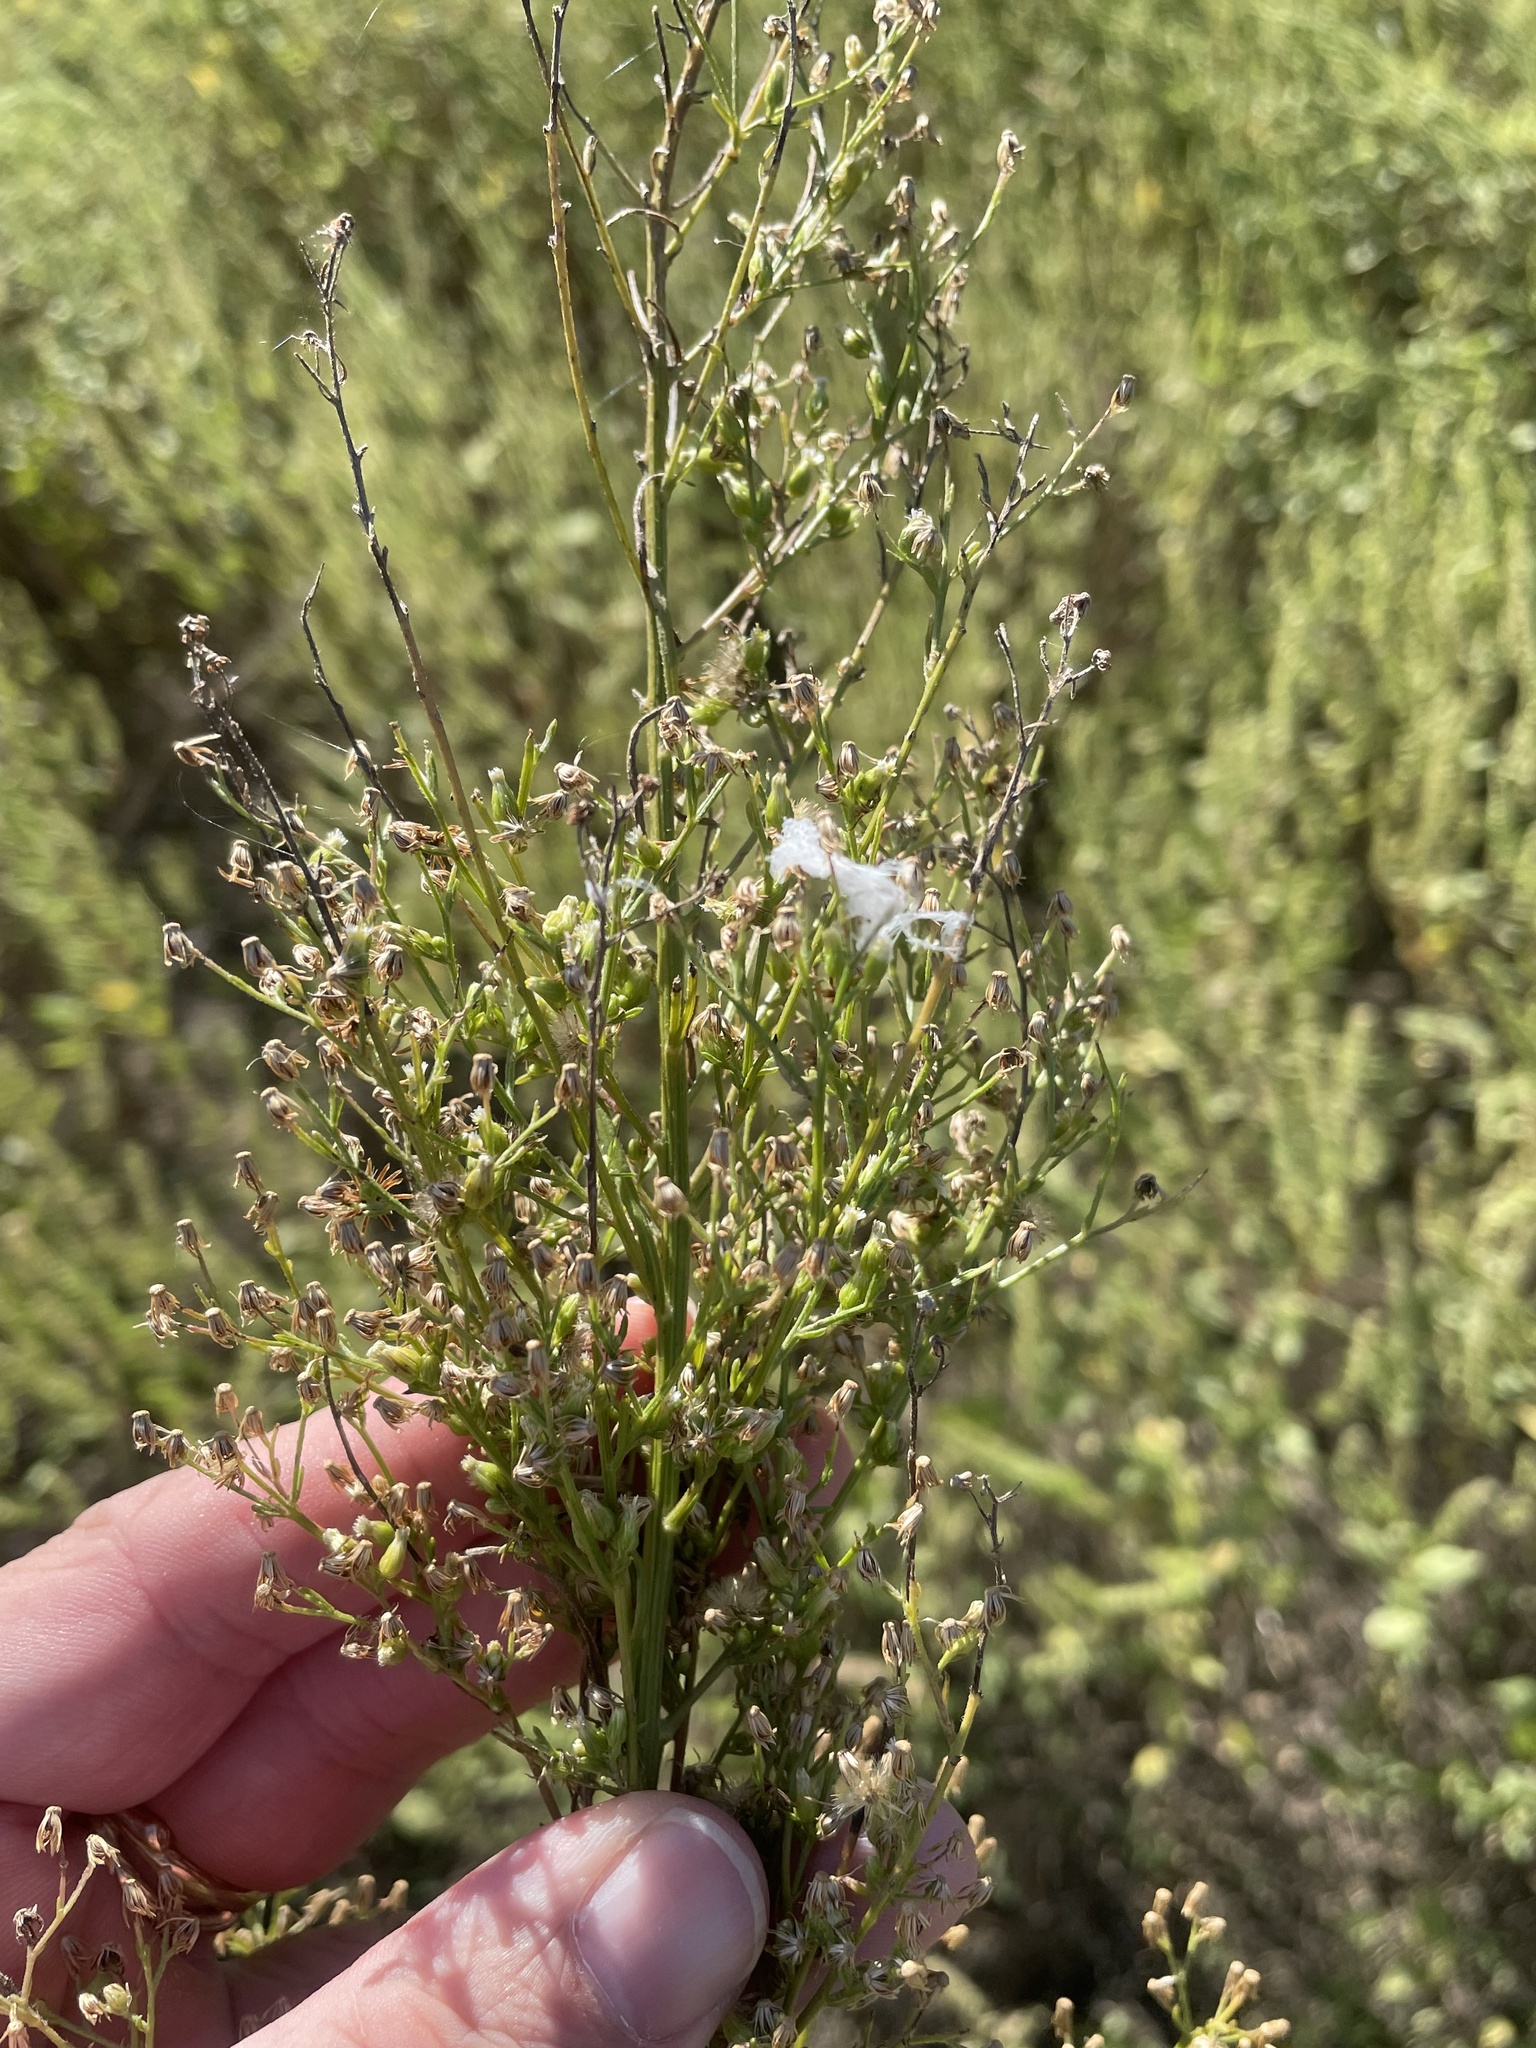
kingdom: Plantae
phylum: Tracheophyta
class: Magnoliopsida
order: Asterales
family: Asteraceae
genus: Erigeron
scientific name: Erigeron canadensis
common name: Canadian fleabane
